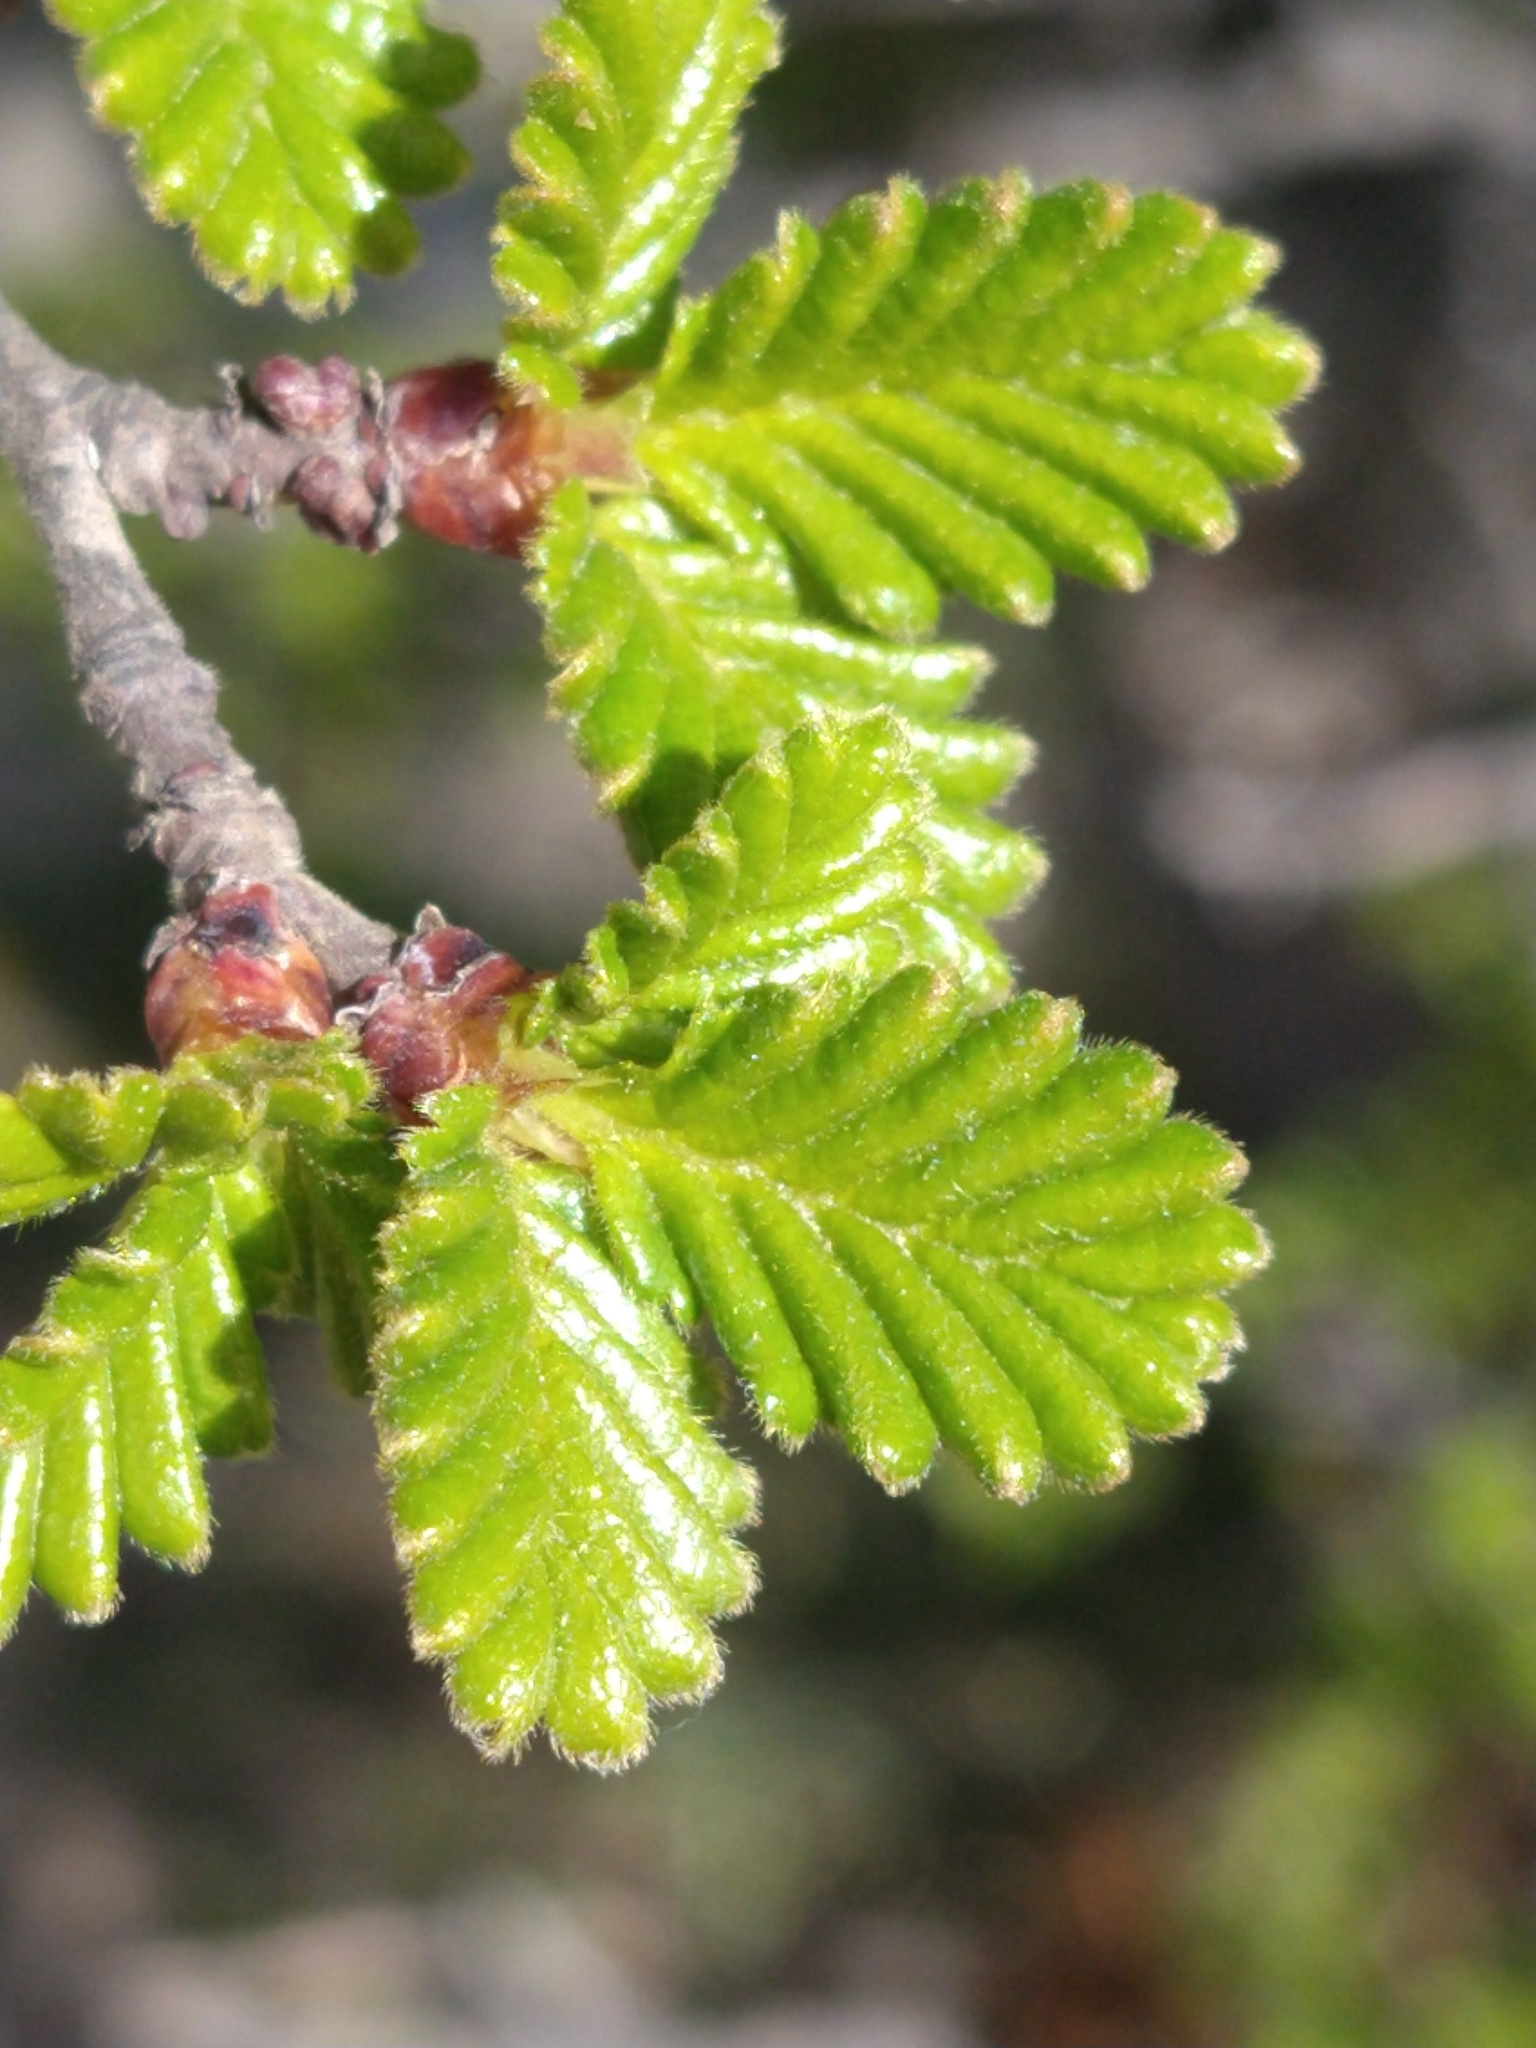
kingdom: Plantae
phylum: Tracheophyta
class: Magnoliopsida
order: Fagales
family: Nothofagaceae
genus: Nothofagus
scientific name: Nothofagus pumilio
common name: Lenga beech
